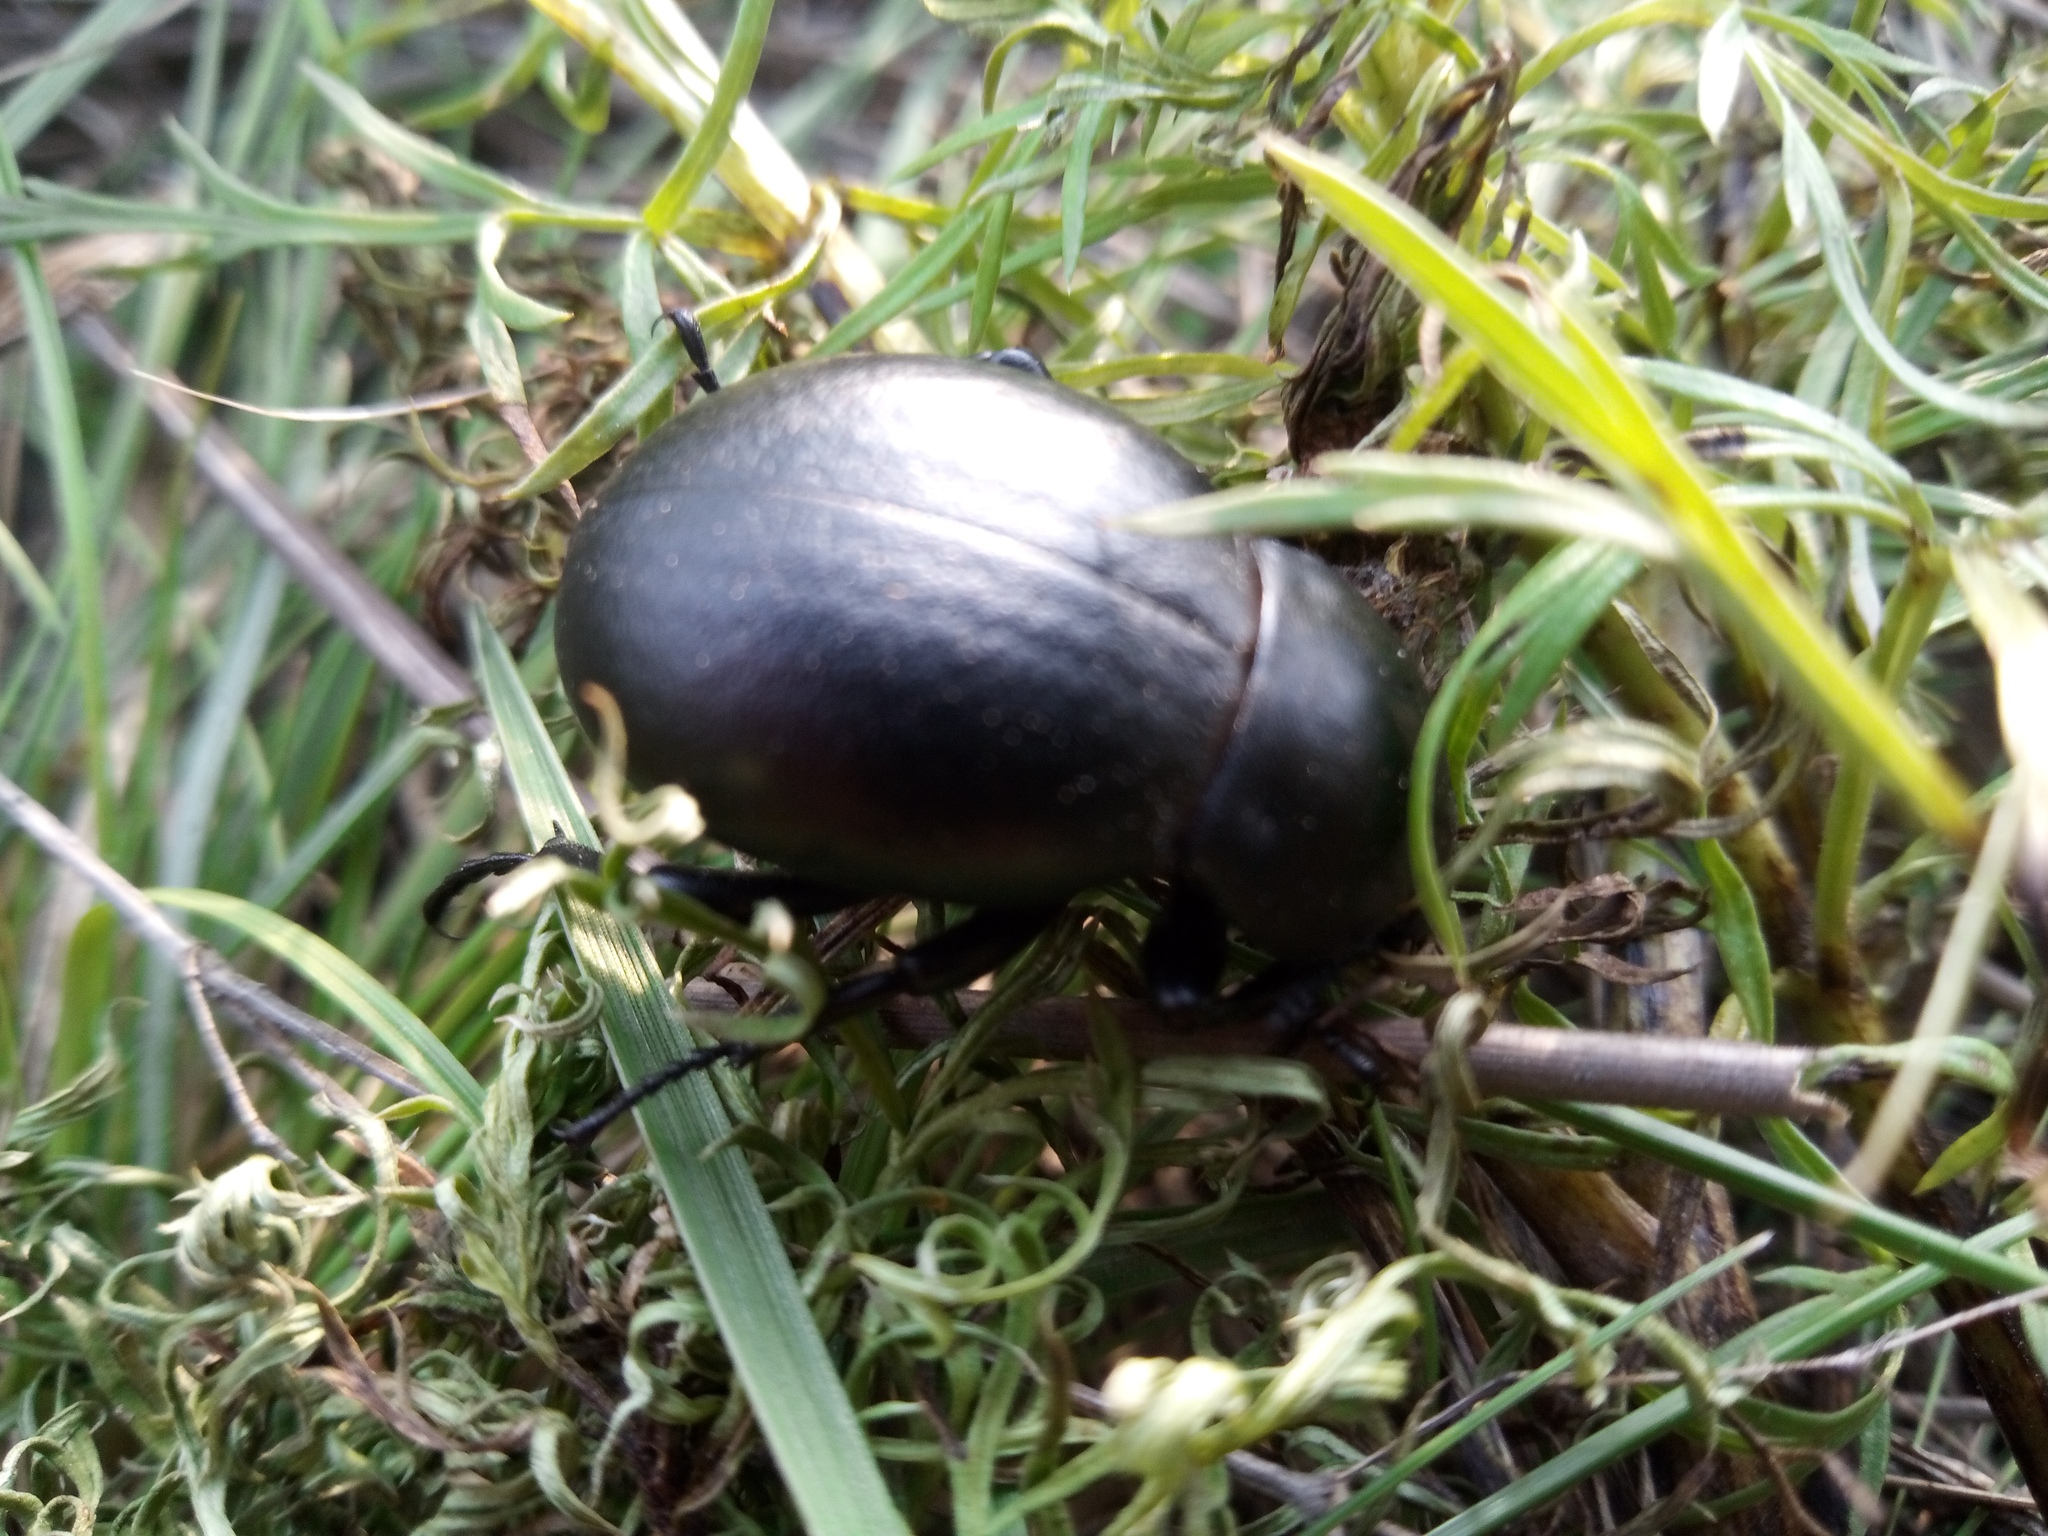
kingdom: Animalia
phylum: Arthropoda
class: Insecta
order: Coleoptera
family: Tenebrionidae
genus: Gnaptor
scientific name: Gnaptor spinimanus
